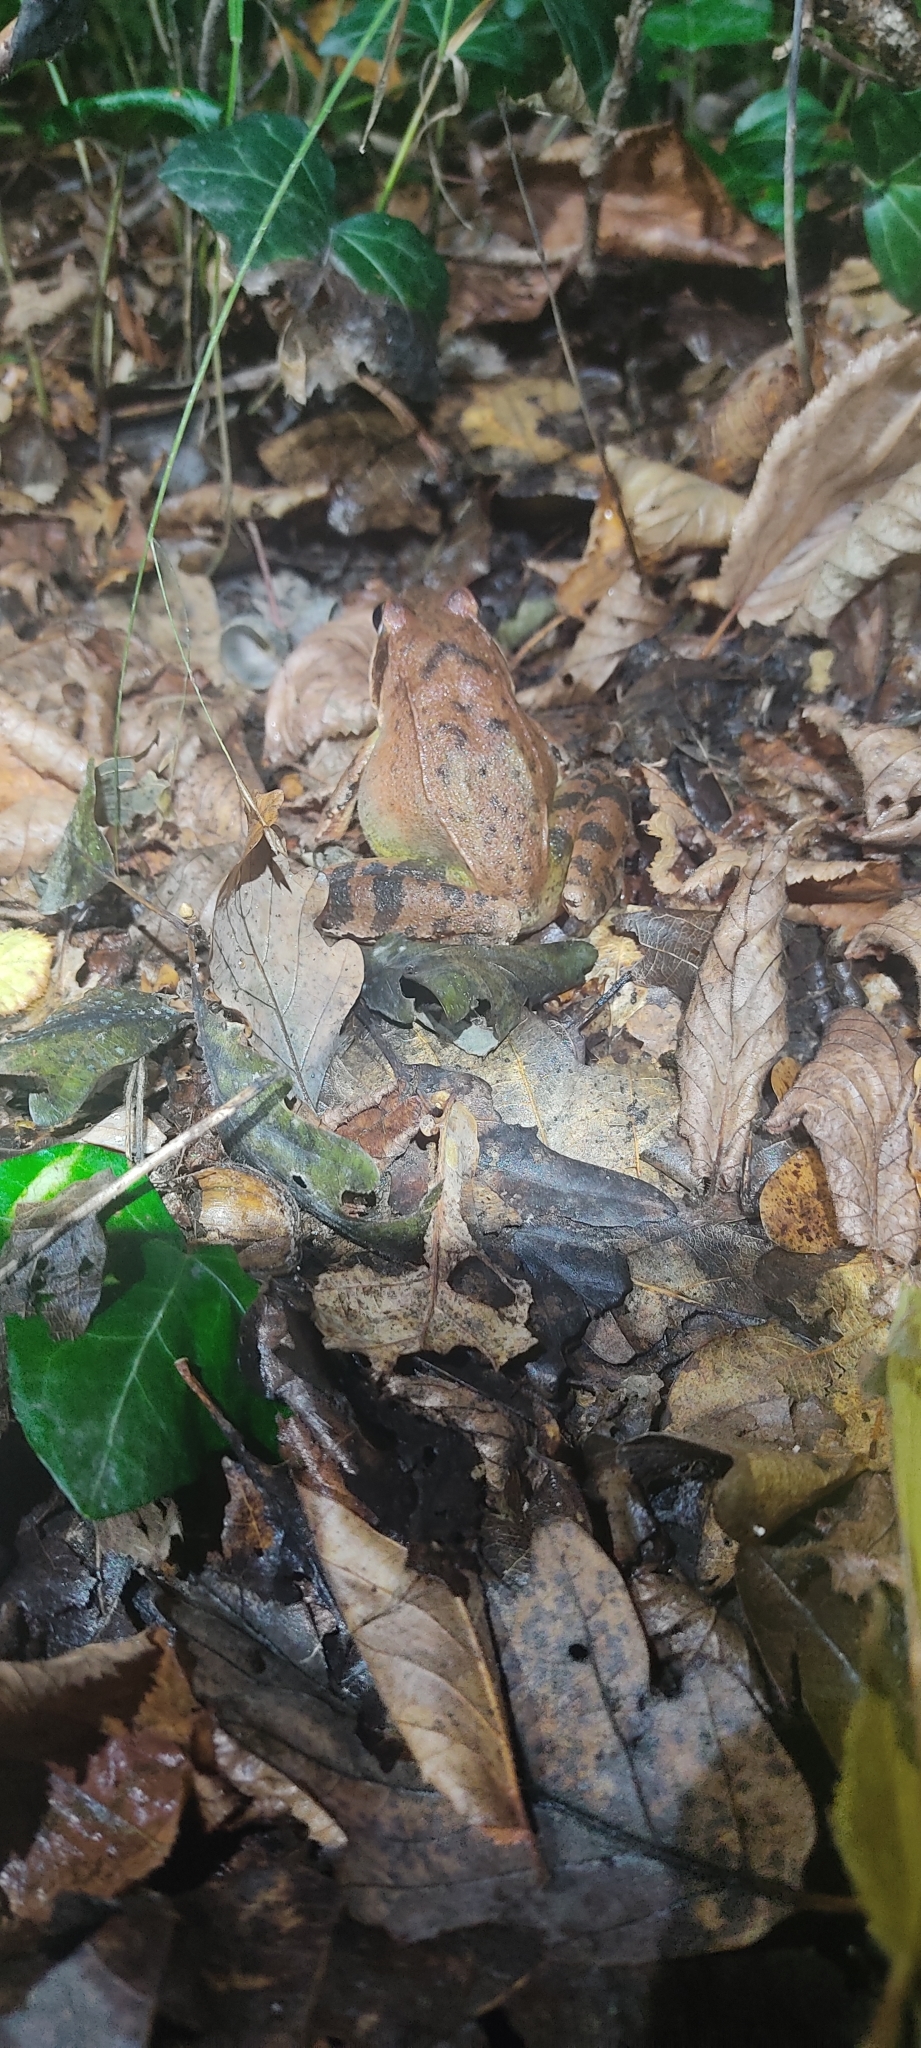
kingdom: Animalia
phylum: Chordata
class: Amphibia
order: Anura
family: Ranidae
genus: Rana
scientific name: Rana dalmatina
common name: Agile frog
